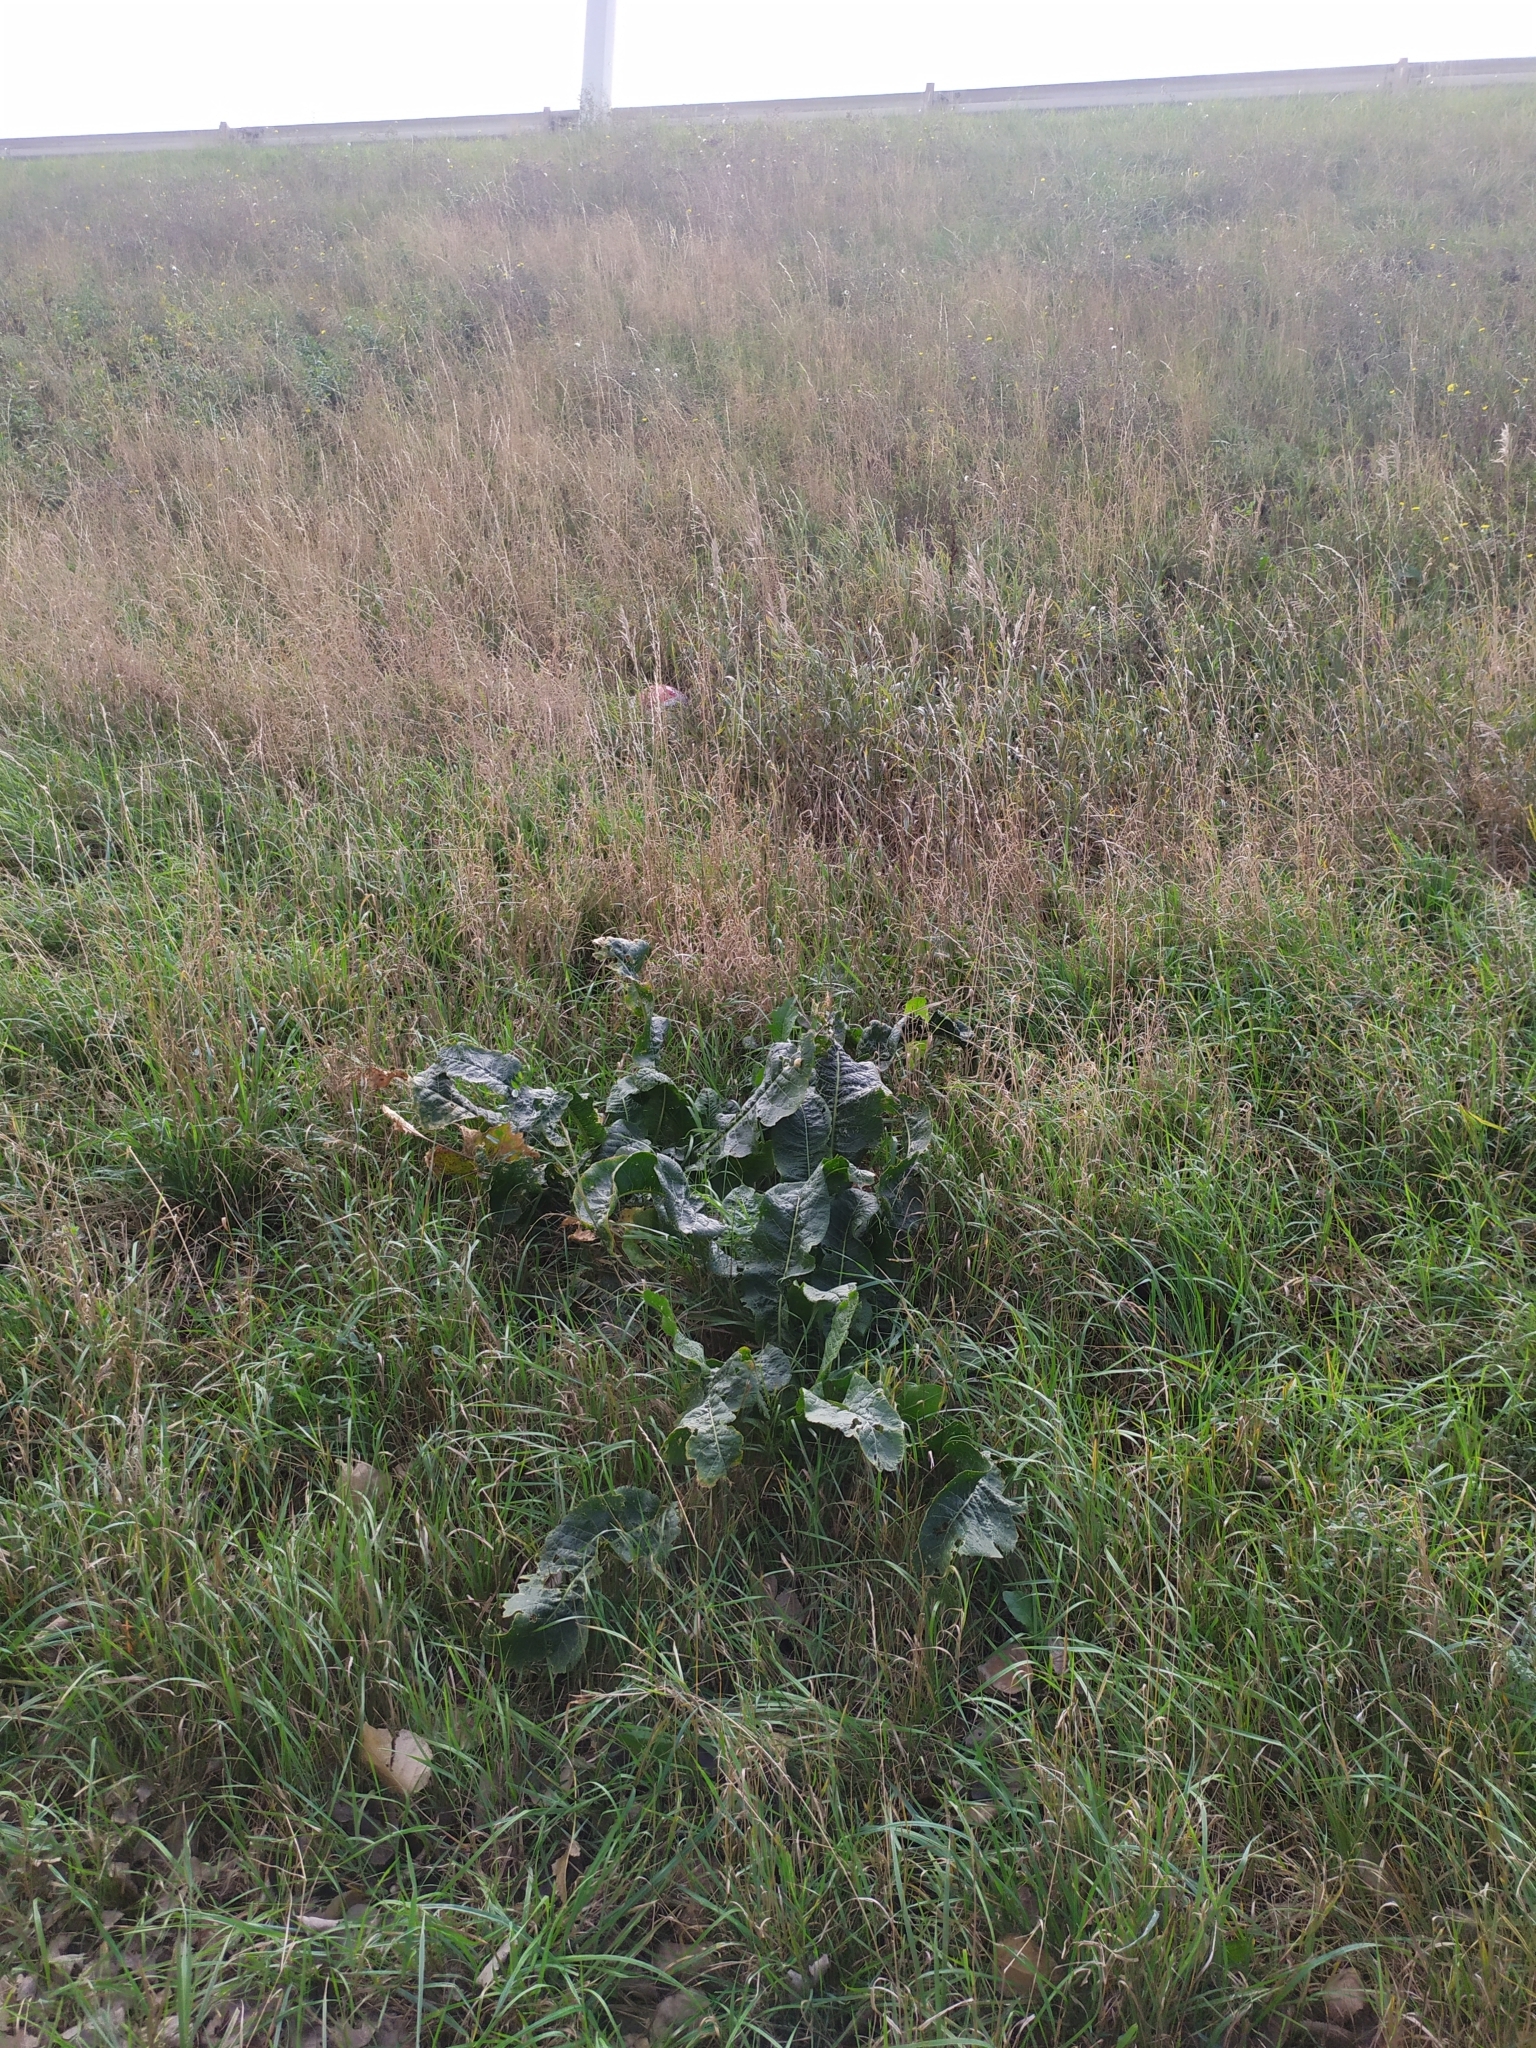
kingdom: Plantae
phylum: Tracheophyta
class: Magnoliopsida
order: Brassicales
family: Brassicaceae
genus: Armoracia
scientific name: Armoracia rusticana
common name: Horseradish
